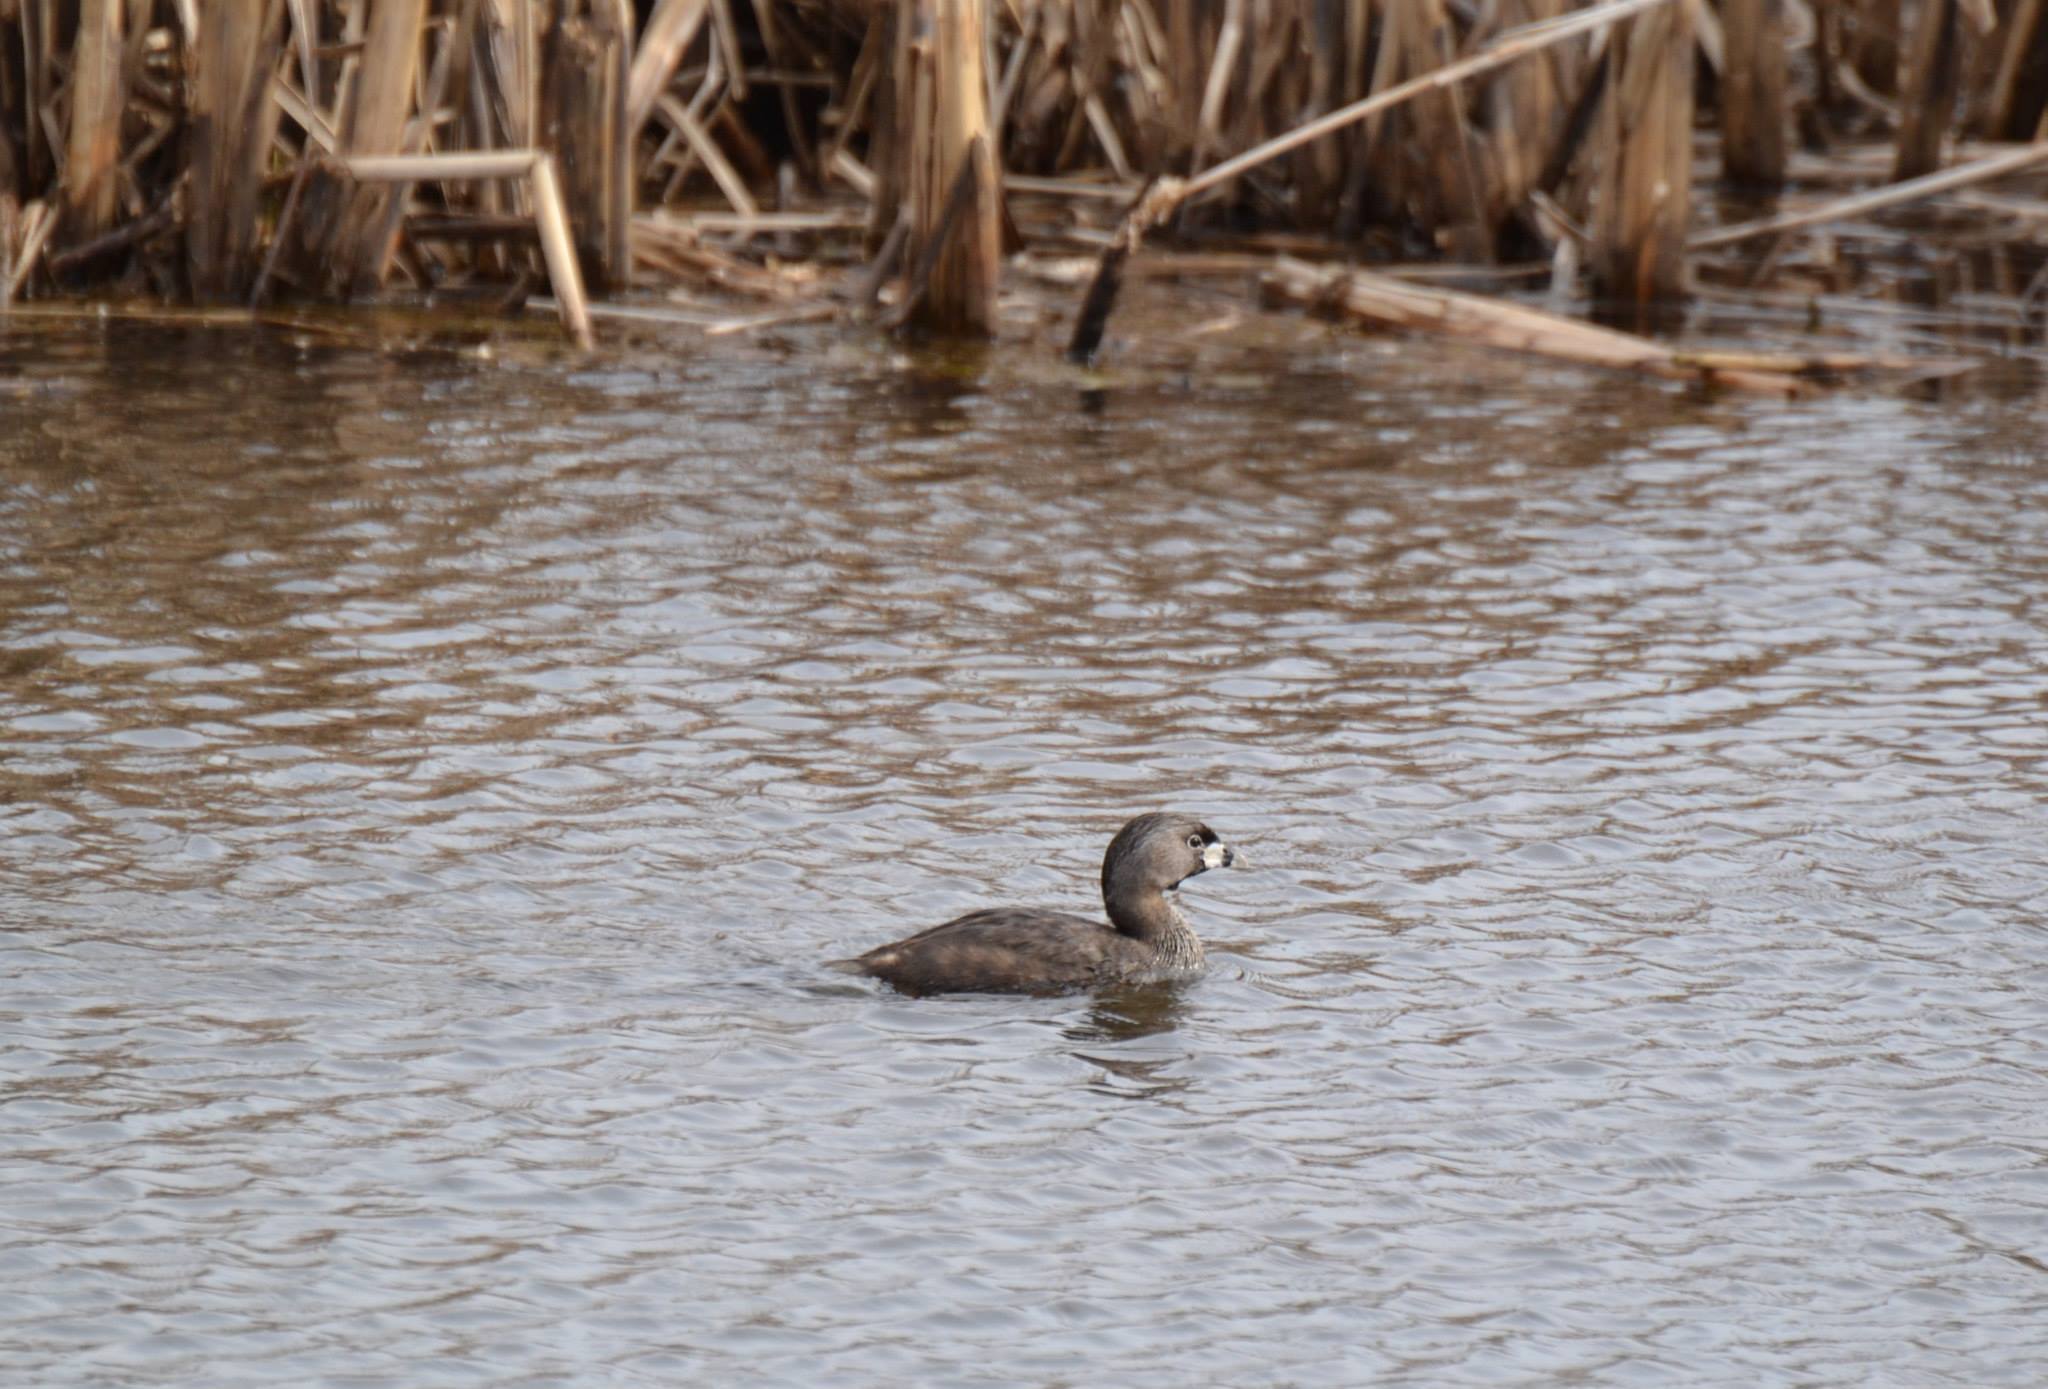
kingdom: Animalia
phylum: Chordata
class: Aves
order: Podicipediformes
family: Podicipedidae
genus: Podilymbus
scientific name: Podilymbus podiceps
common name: Pied-billed grebe
